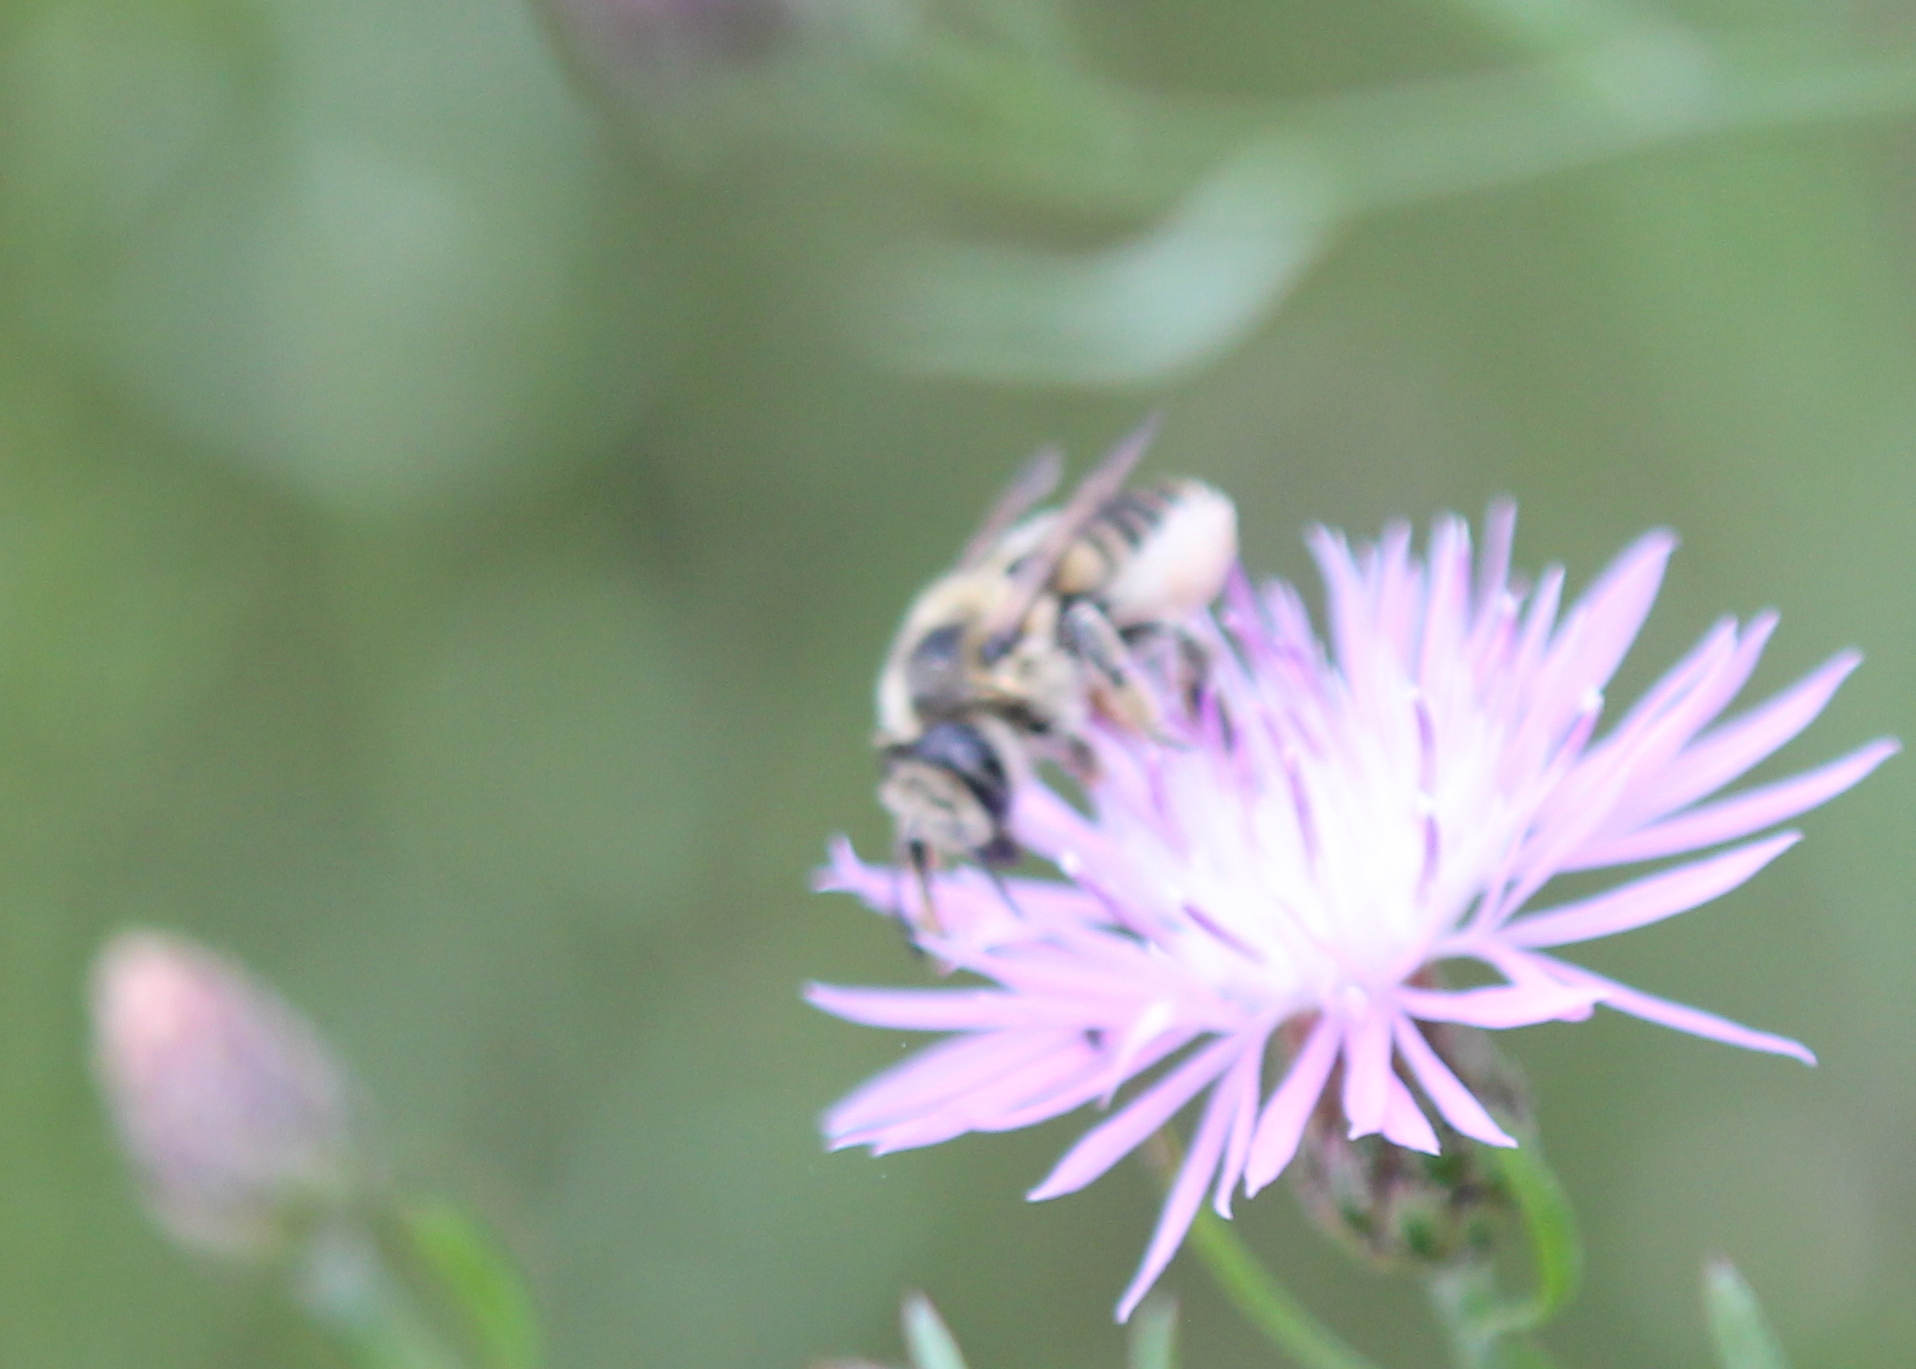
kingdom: Animalia
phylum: Arthropoda
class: Insecta
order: Hymenoptera
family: Megachilidae
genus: Megachile
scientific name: Megachile latimanus
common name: Leafcutting bee
